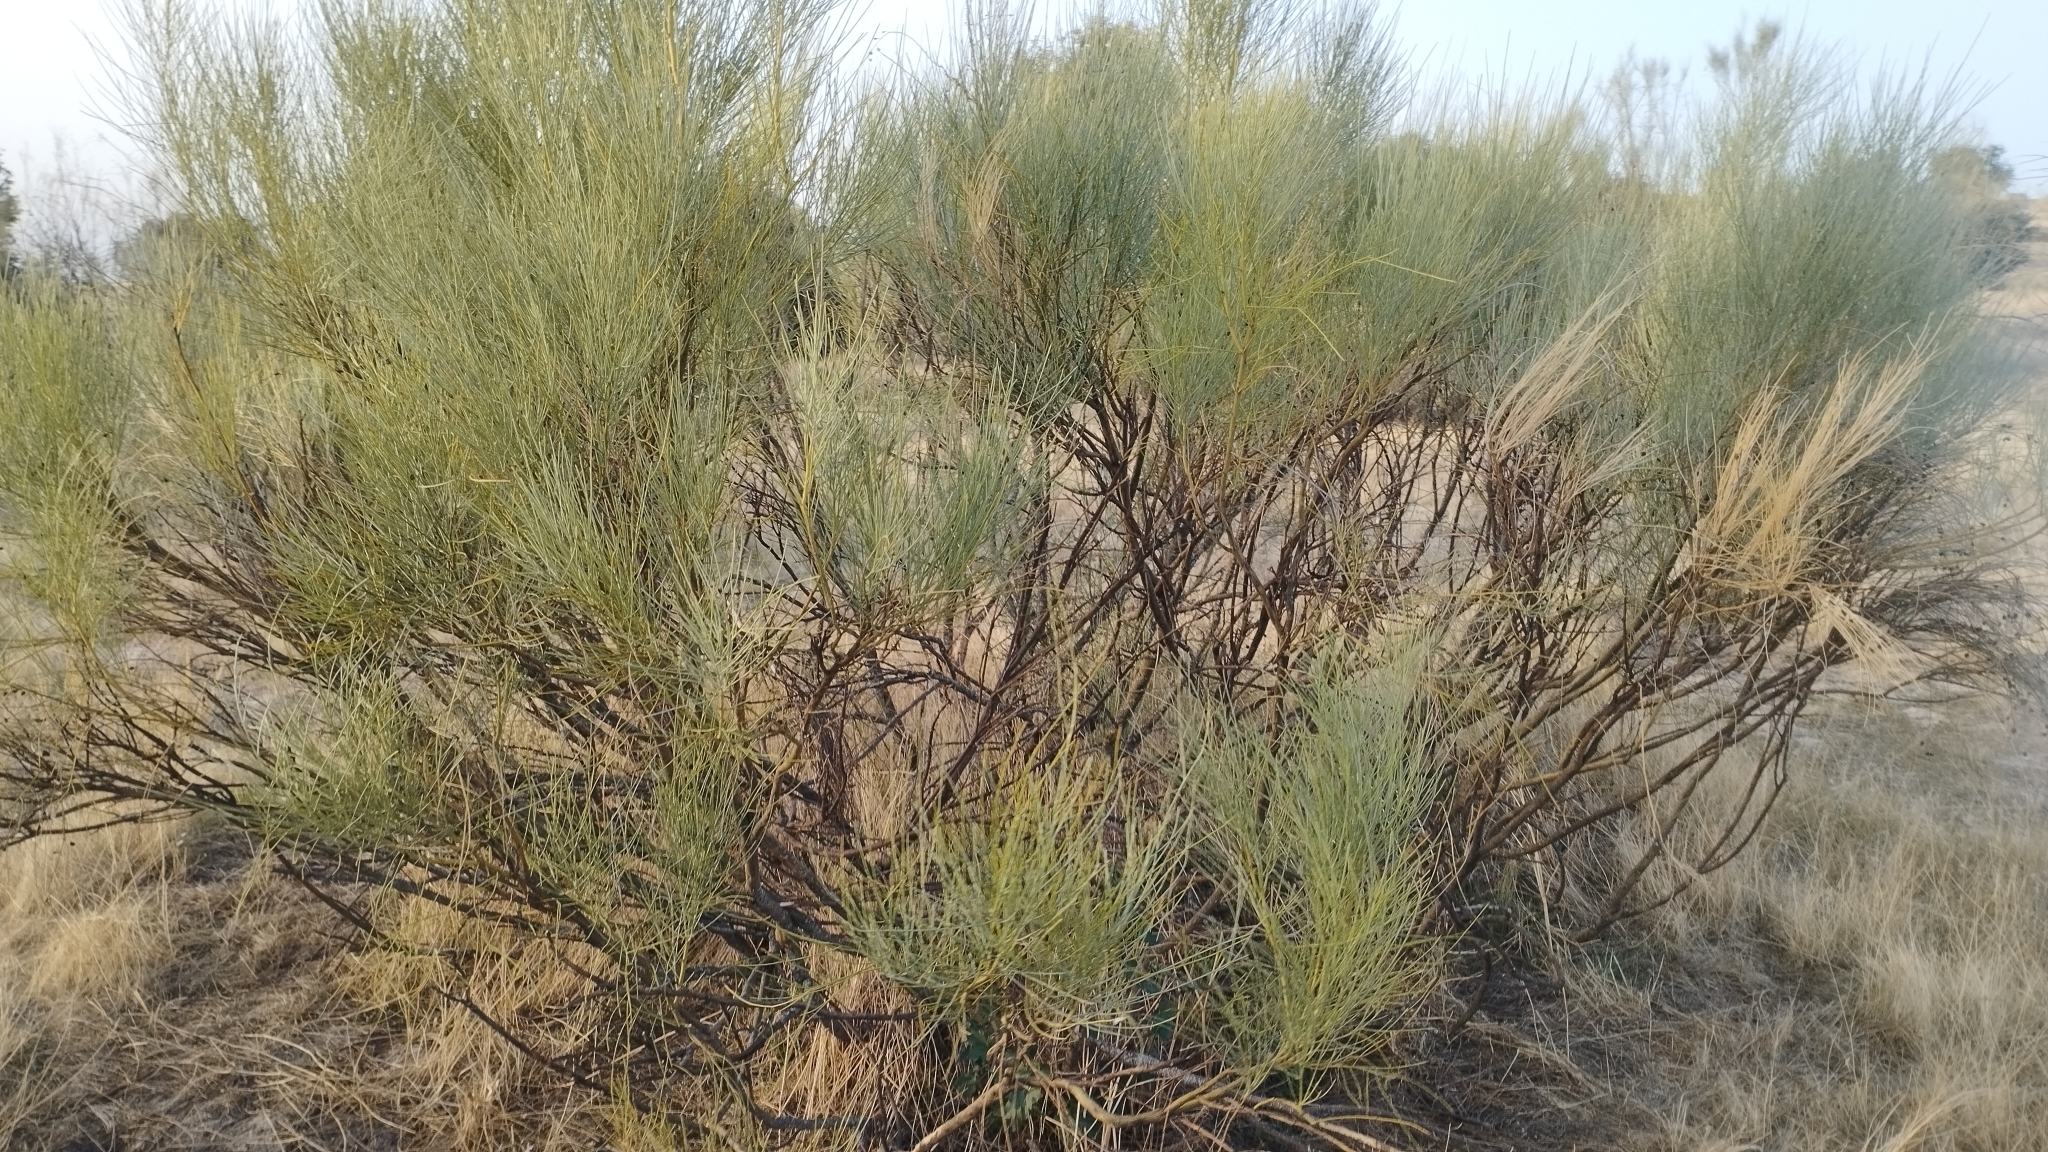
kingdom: Plantae
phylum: Tracheophyta
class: Magnoliopsida
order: Fabales
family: Fabaceae
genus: Retama
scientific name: Retama sphaerocarpa
